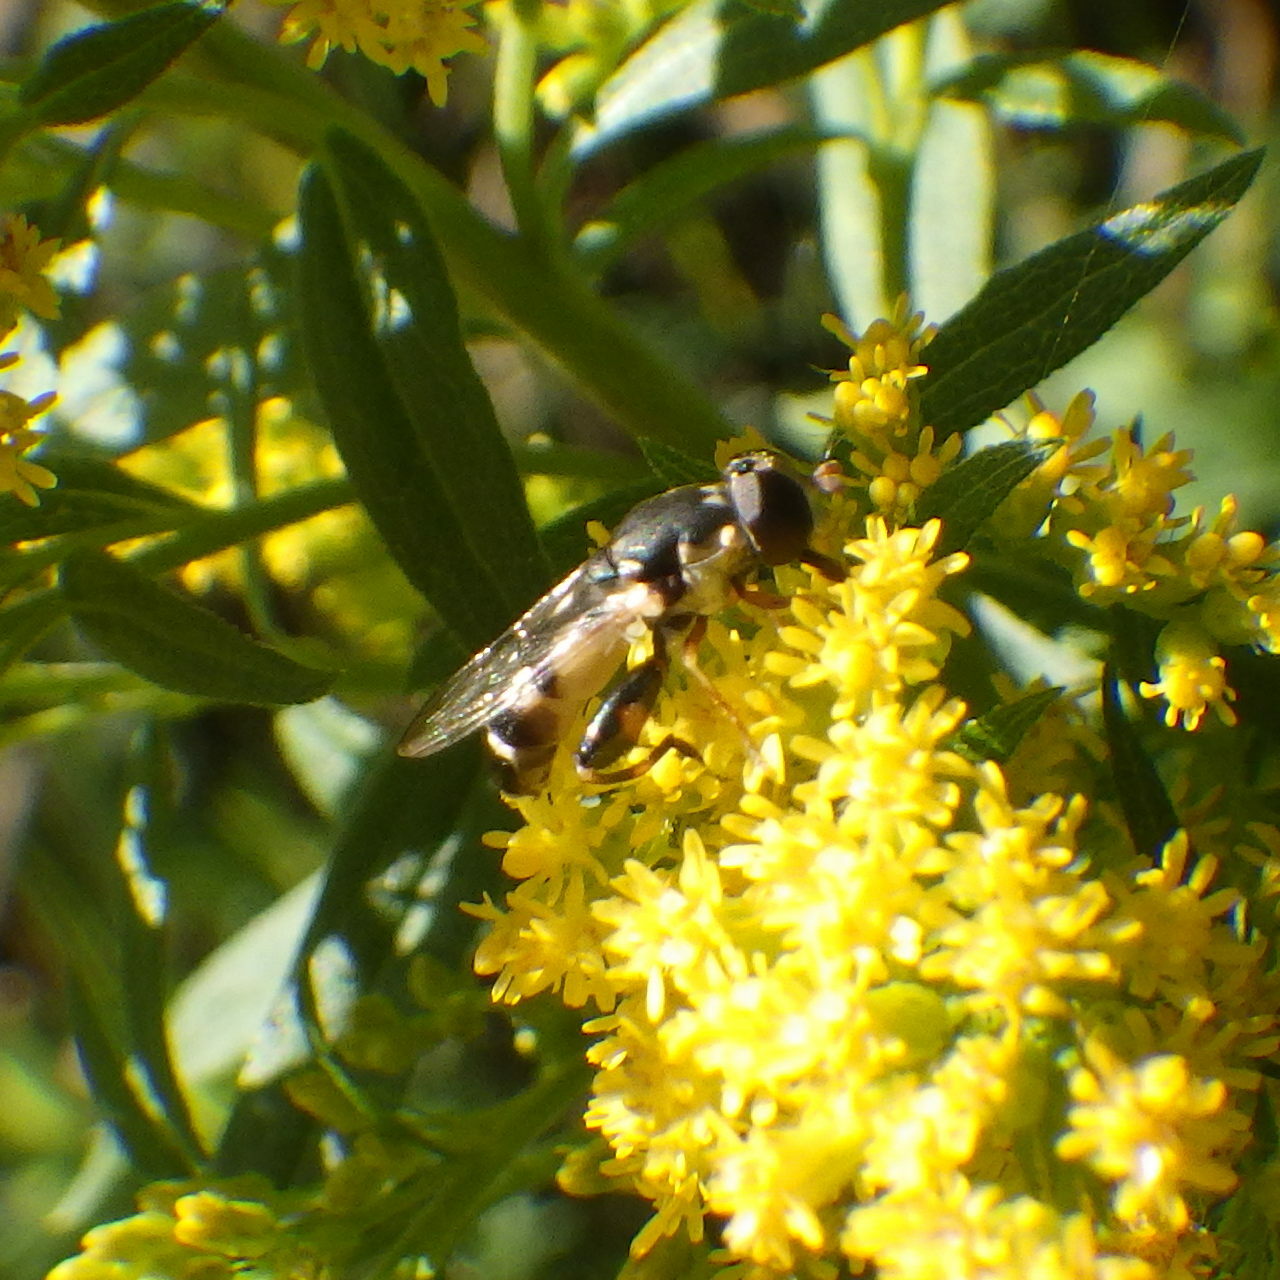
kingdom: Animalia
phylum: Arthropoda
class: Insecta
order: Diptera
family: Syrphidae
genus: Syritta
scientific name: Syritta pipiens
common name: Hover fly
